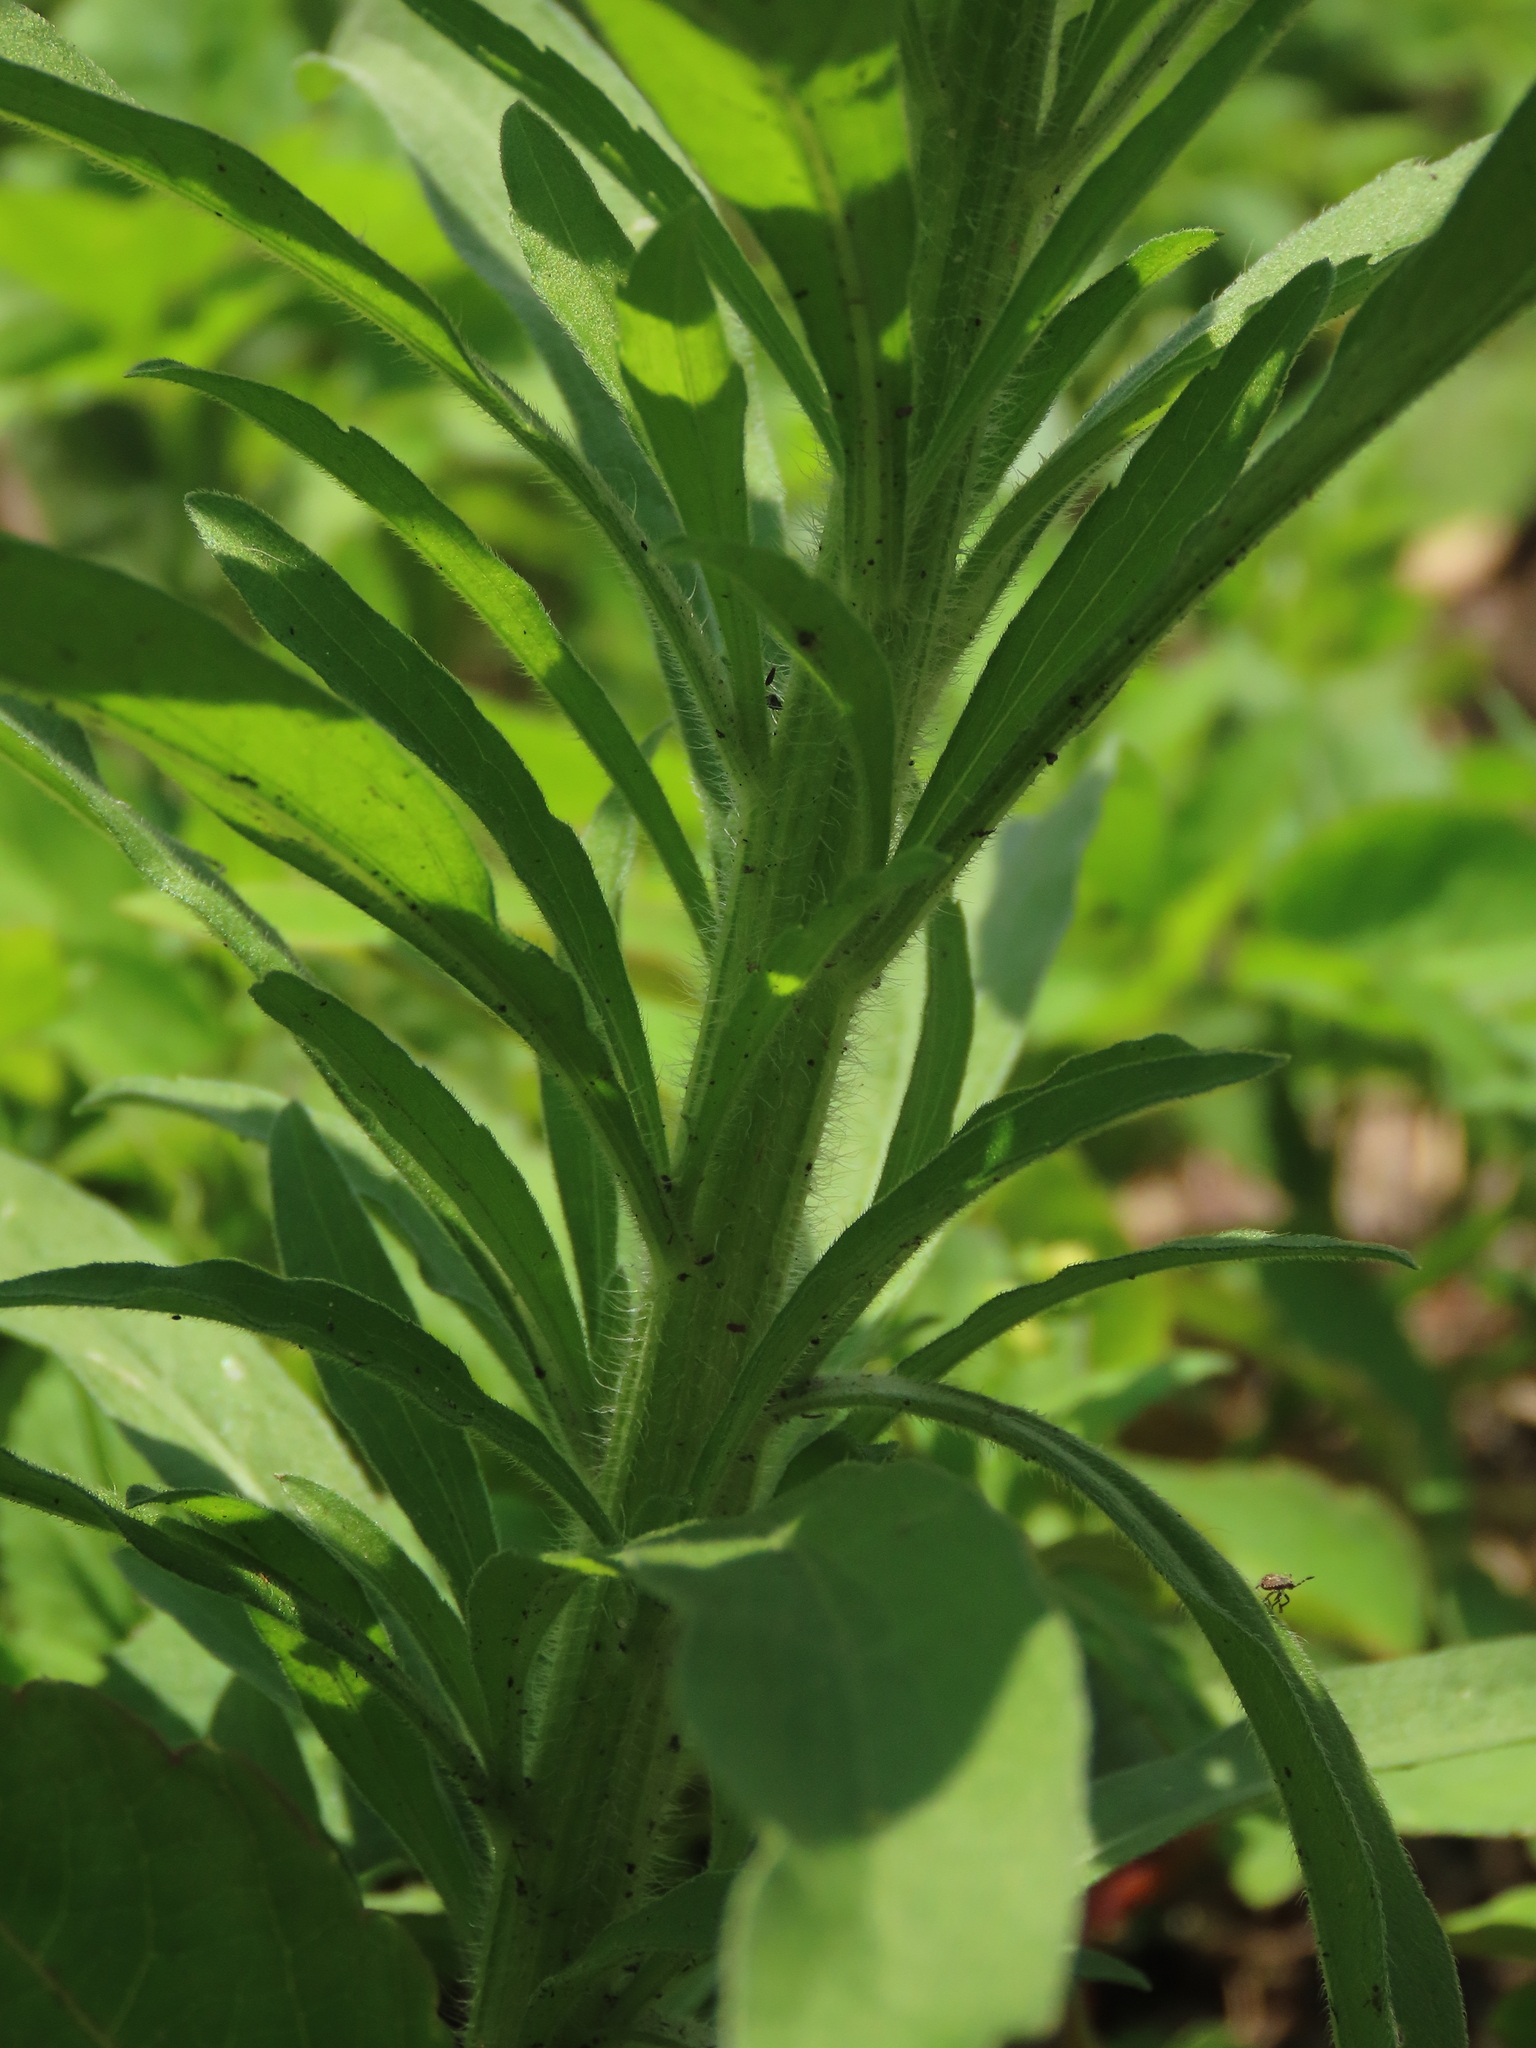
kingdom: Plantae
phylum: Tracheophyta
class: Magnoliopsida
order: Asterales
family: Asteraceae
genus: Erigeron
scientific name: Erigeron sumatrensis
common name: Daisy
